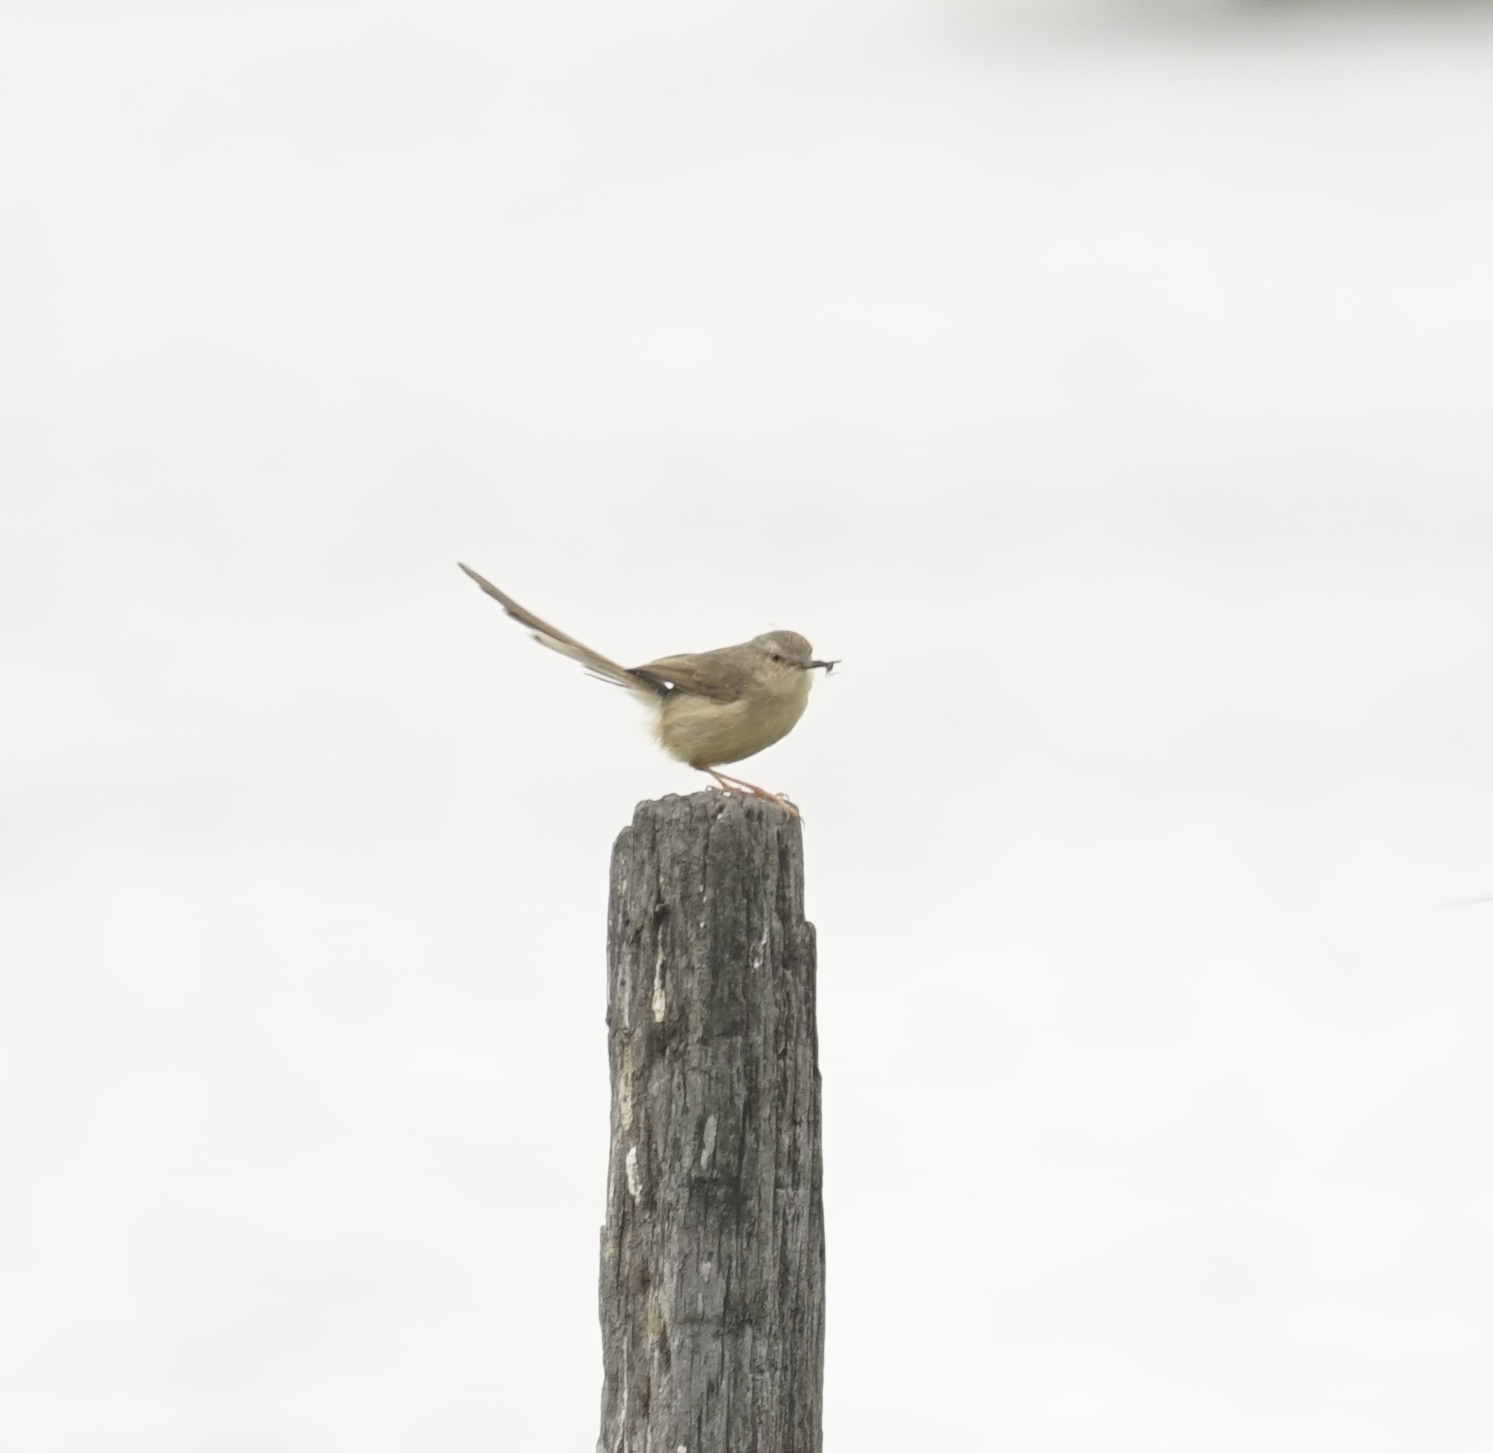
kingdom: Animalia
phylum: Chordata
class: Aves
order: Passeriformes
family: Cisticolidae
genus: Prinia
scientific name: Prinia inornata
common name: Plain prinia
